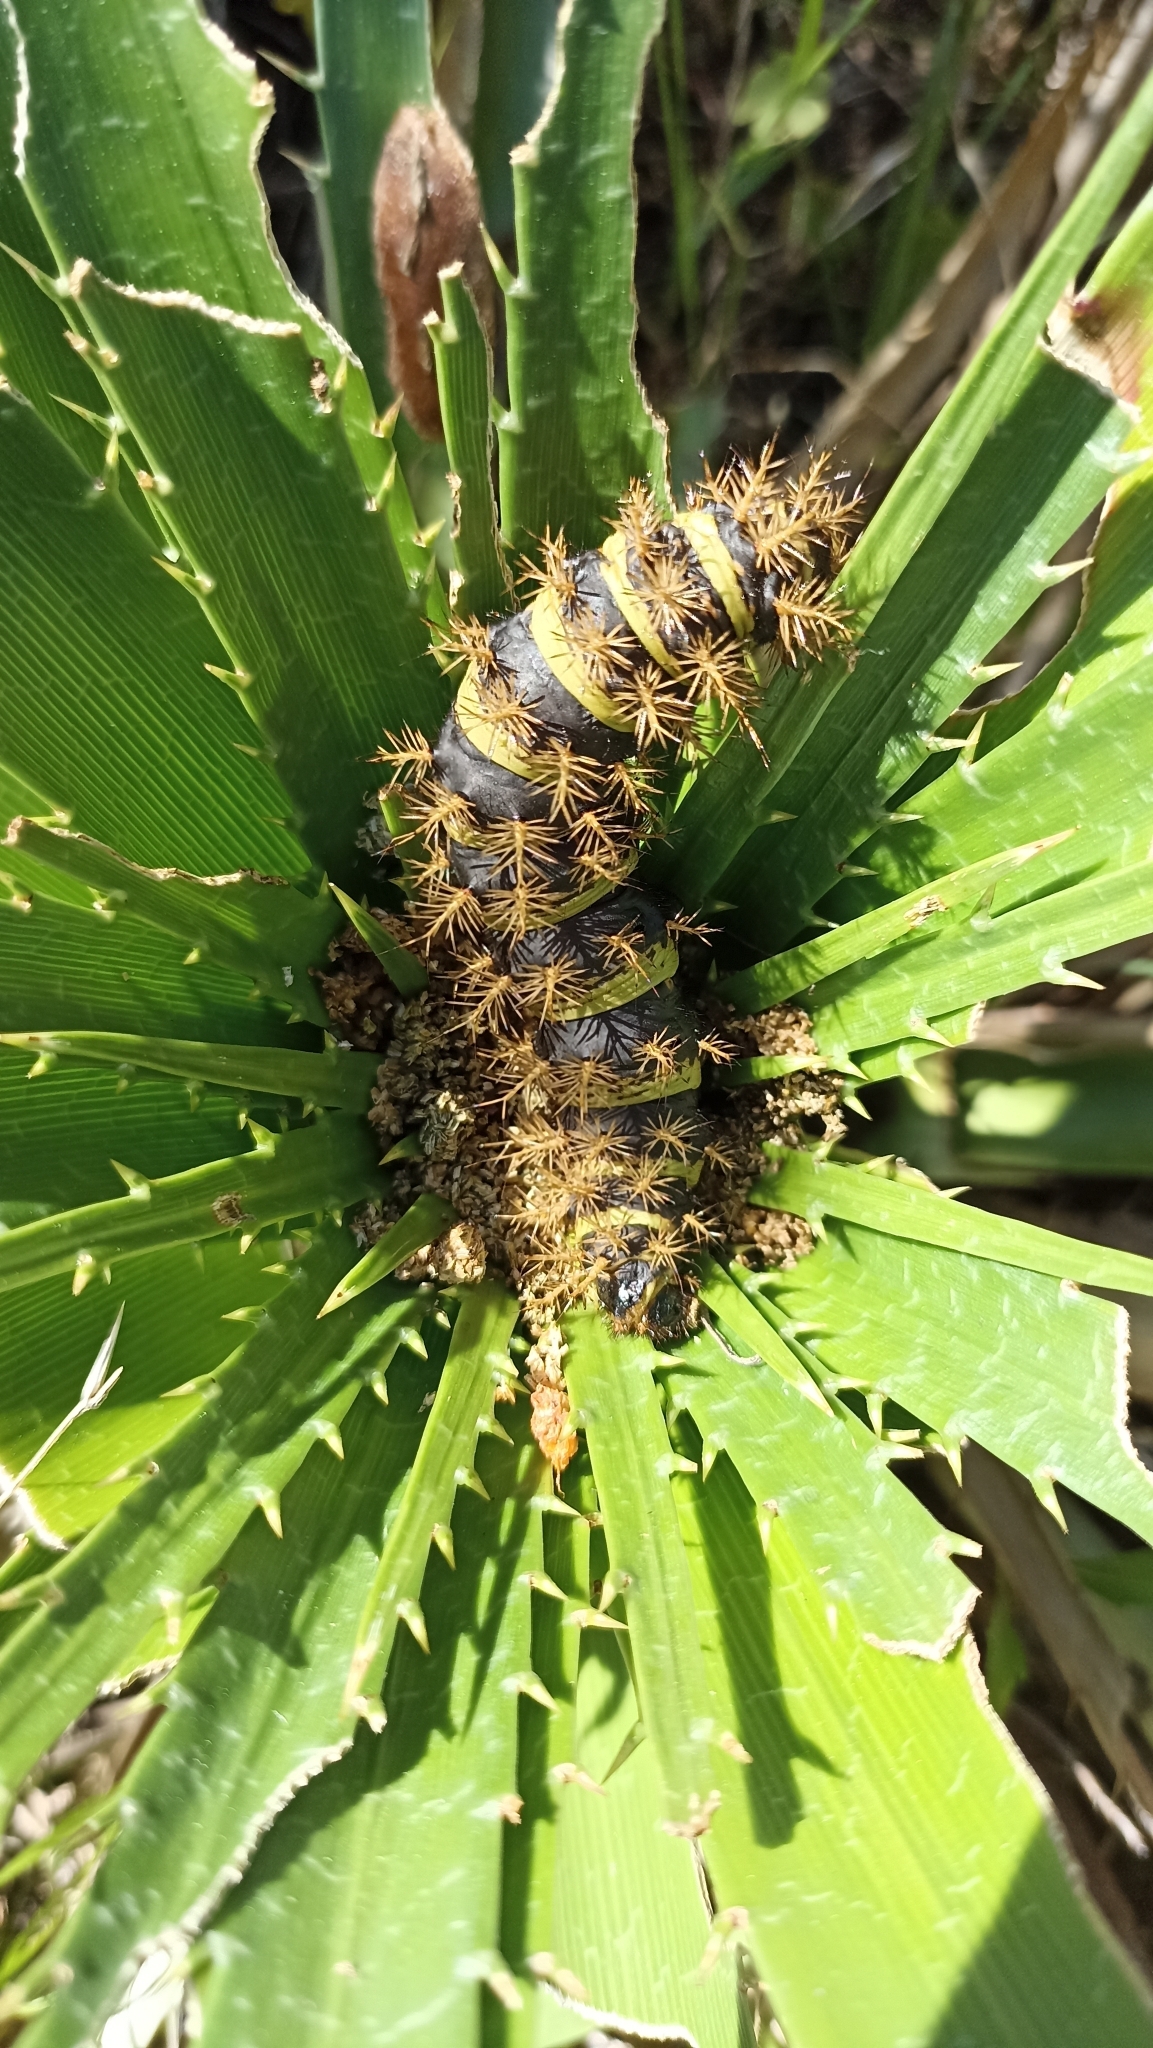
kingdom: Animalia
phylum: Arthropoda
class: Insecta
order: Lepidoptera
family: Saturniidae
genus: Eudyaria
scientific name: Eudyaria zeta
